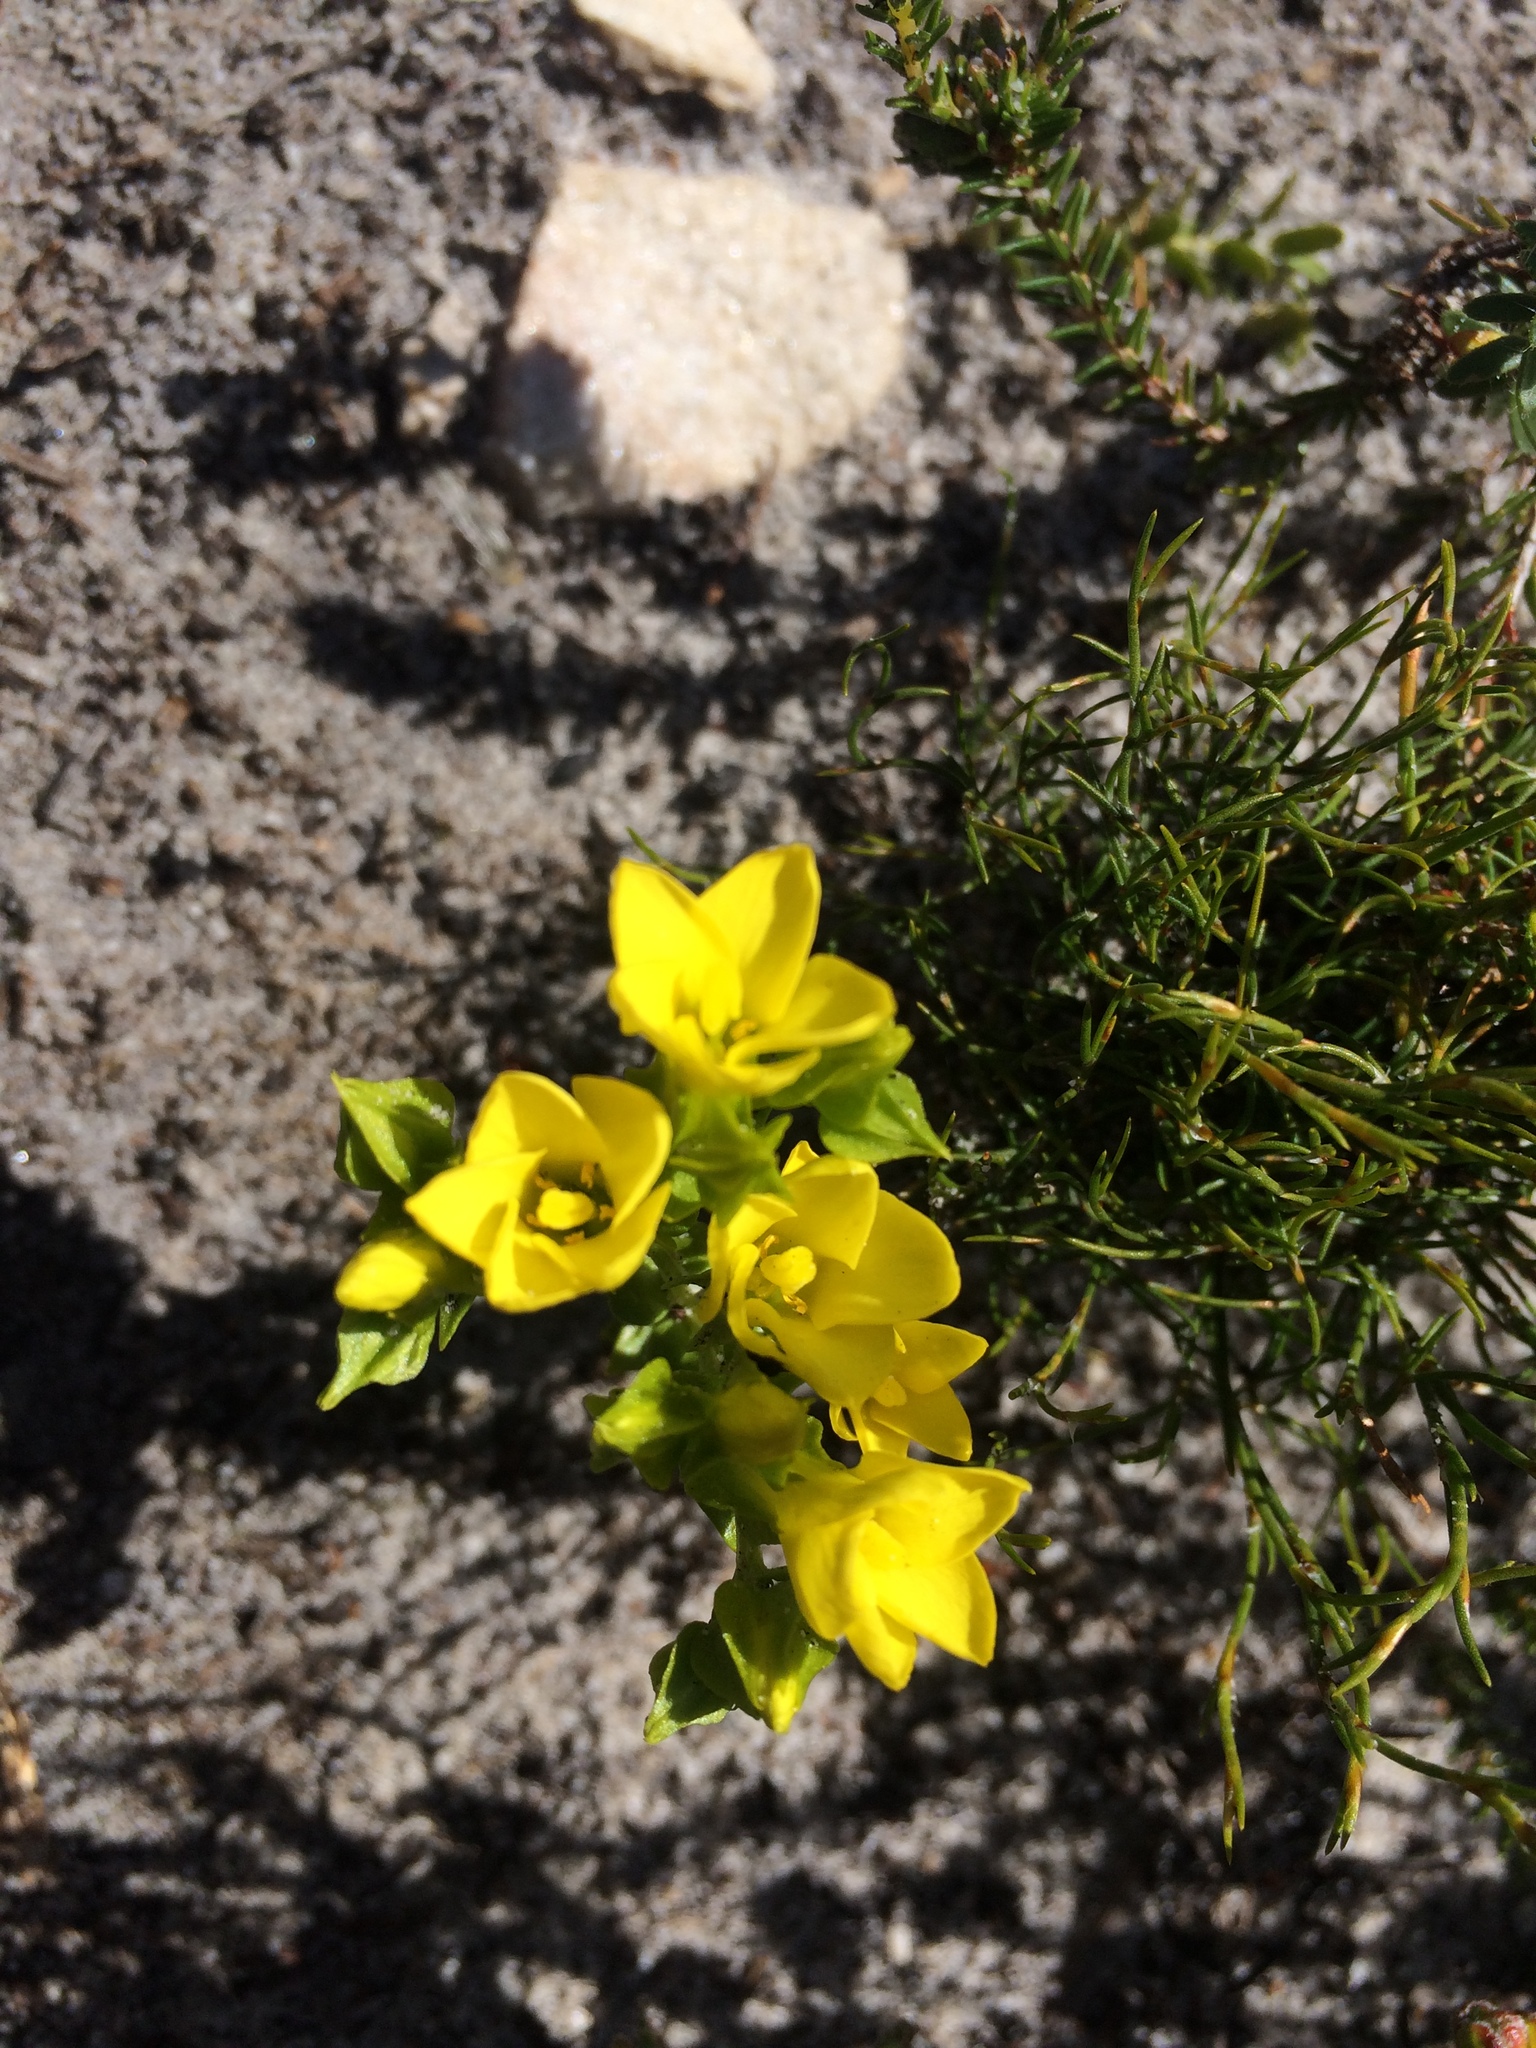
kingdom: Plantae
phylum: Tracheophyta
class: Magnoliopsida
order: Gentianales
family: Gentianaceae
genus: Sebaea
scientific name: Sebaea sulphurea
